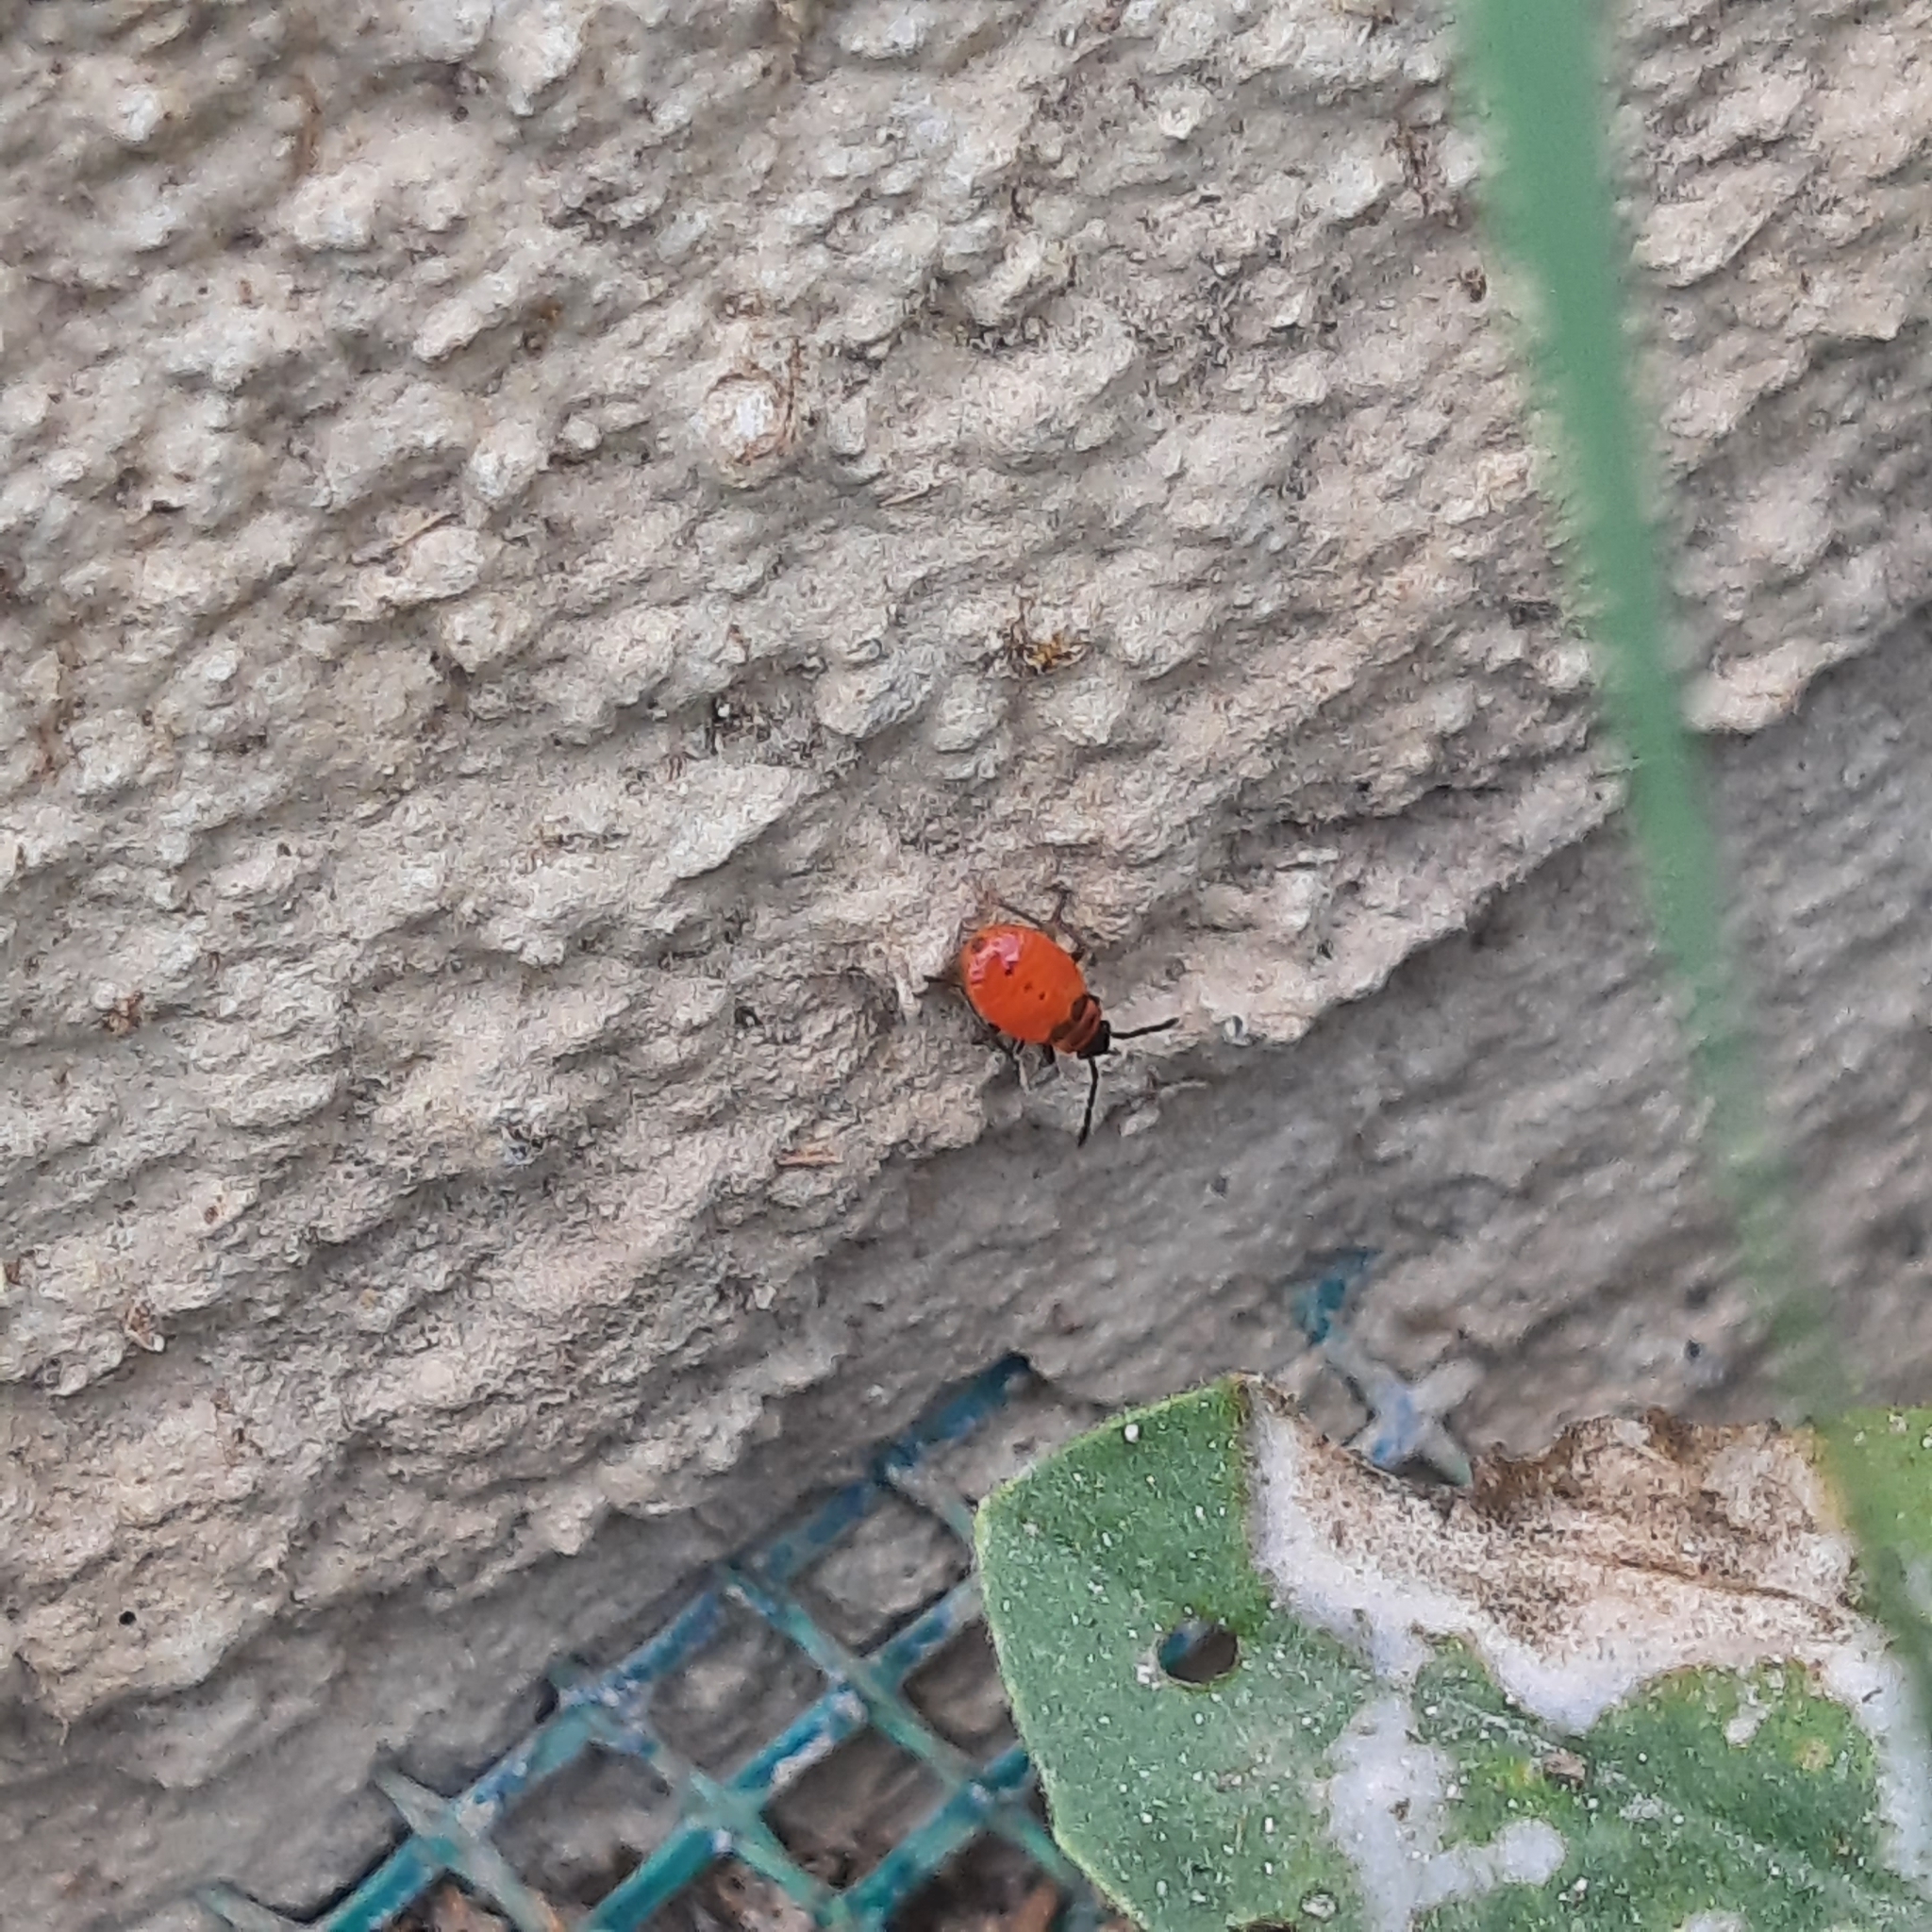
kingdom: Animalia
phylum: Arthropoda
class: Insecta
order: Hemiptera
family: Pyrrhocoridae
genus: Pyrrhocoris
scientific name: Pyrrhocoris apterus
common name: Firebug
